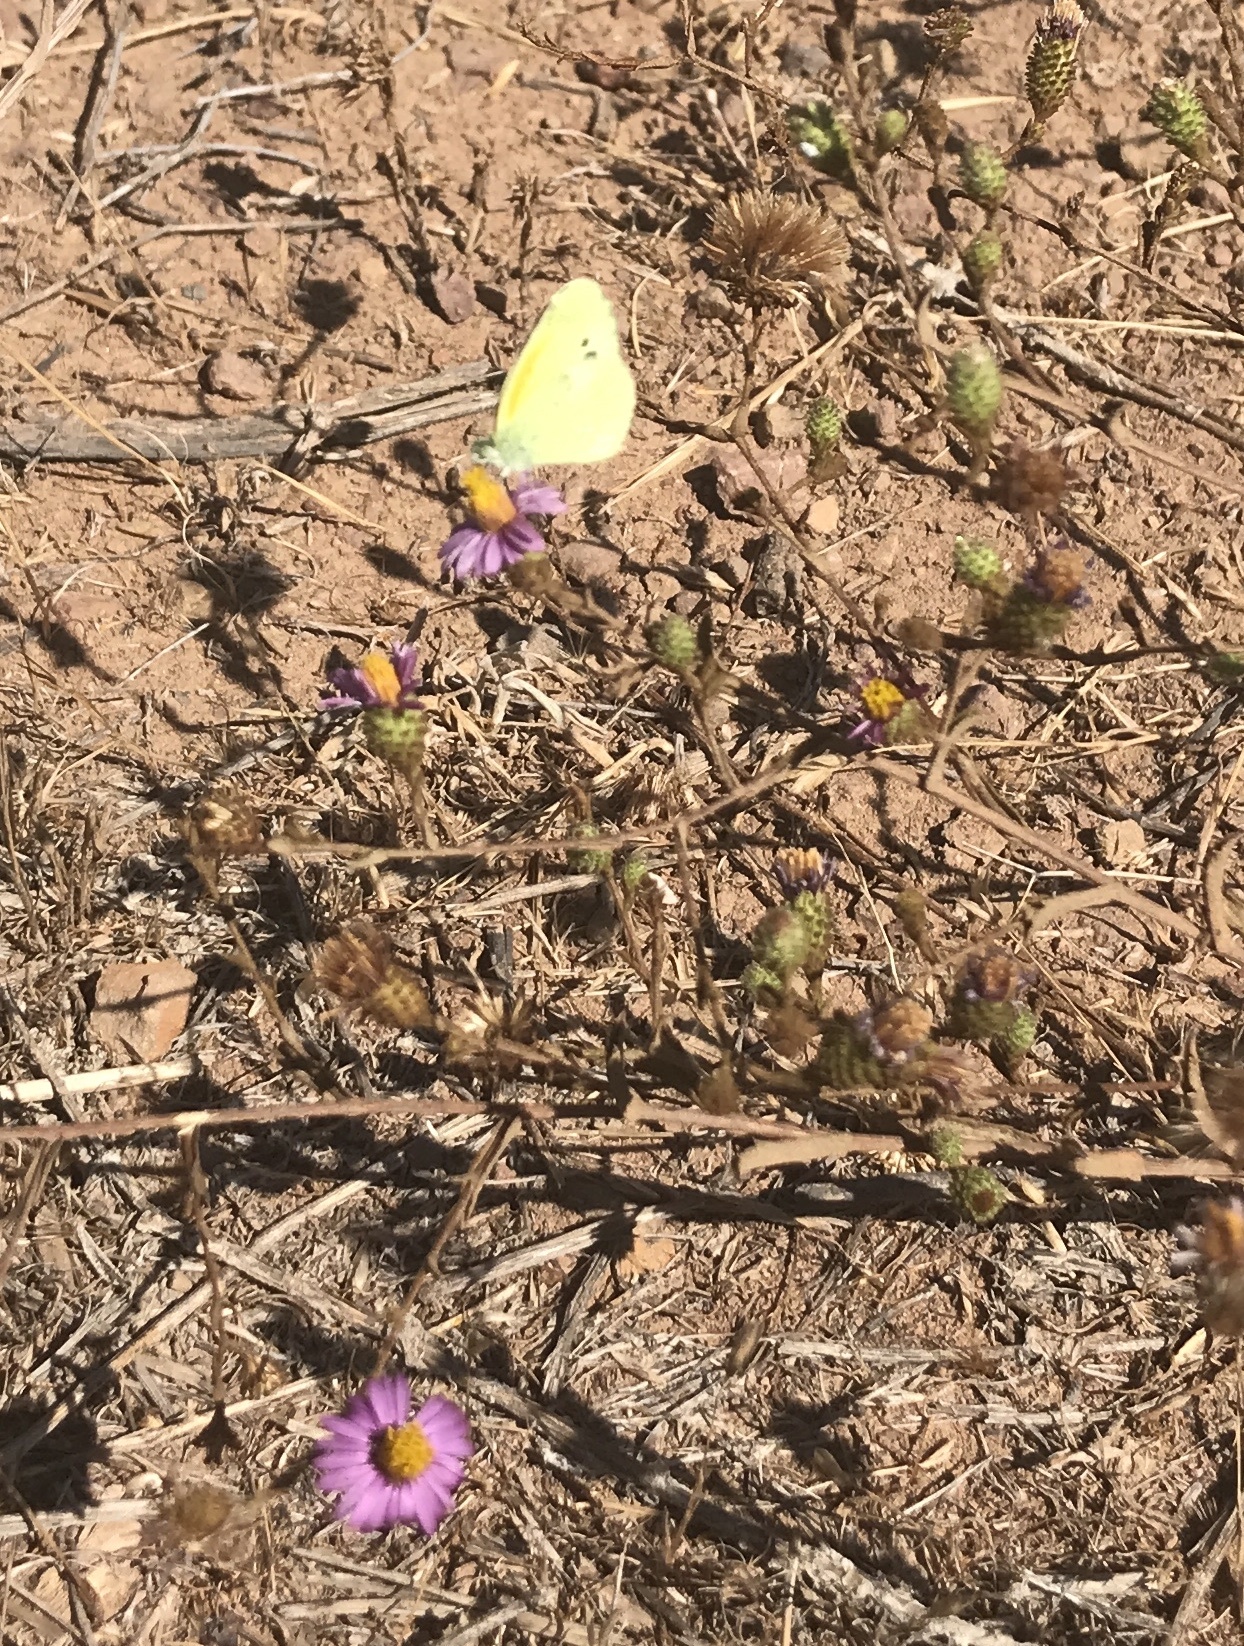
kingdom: Animalia
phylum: Arthropoda
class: Insecta
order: Lepidoptera
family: Pieridae
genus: Nathalis
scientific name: Nathalis iole
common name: Dainty sulphur
